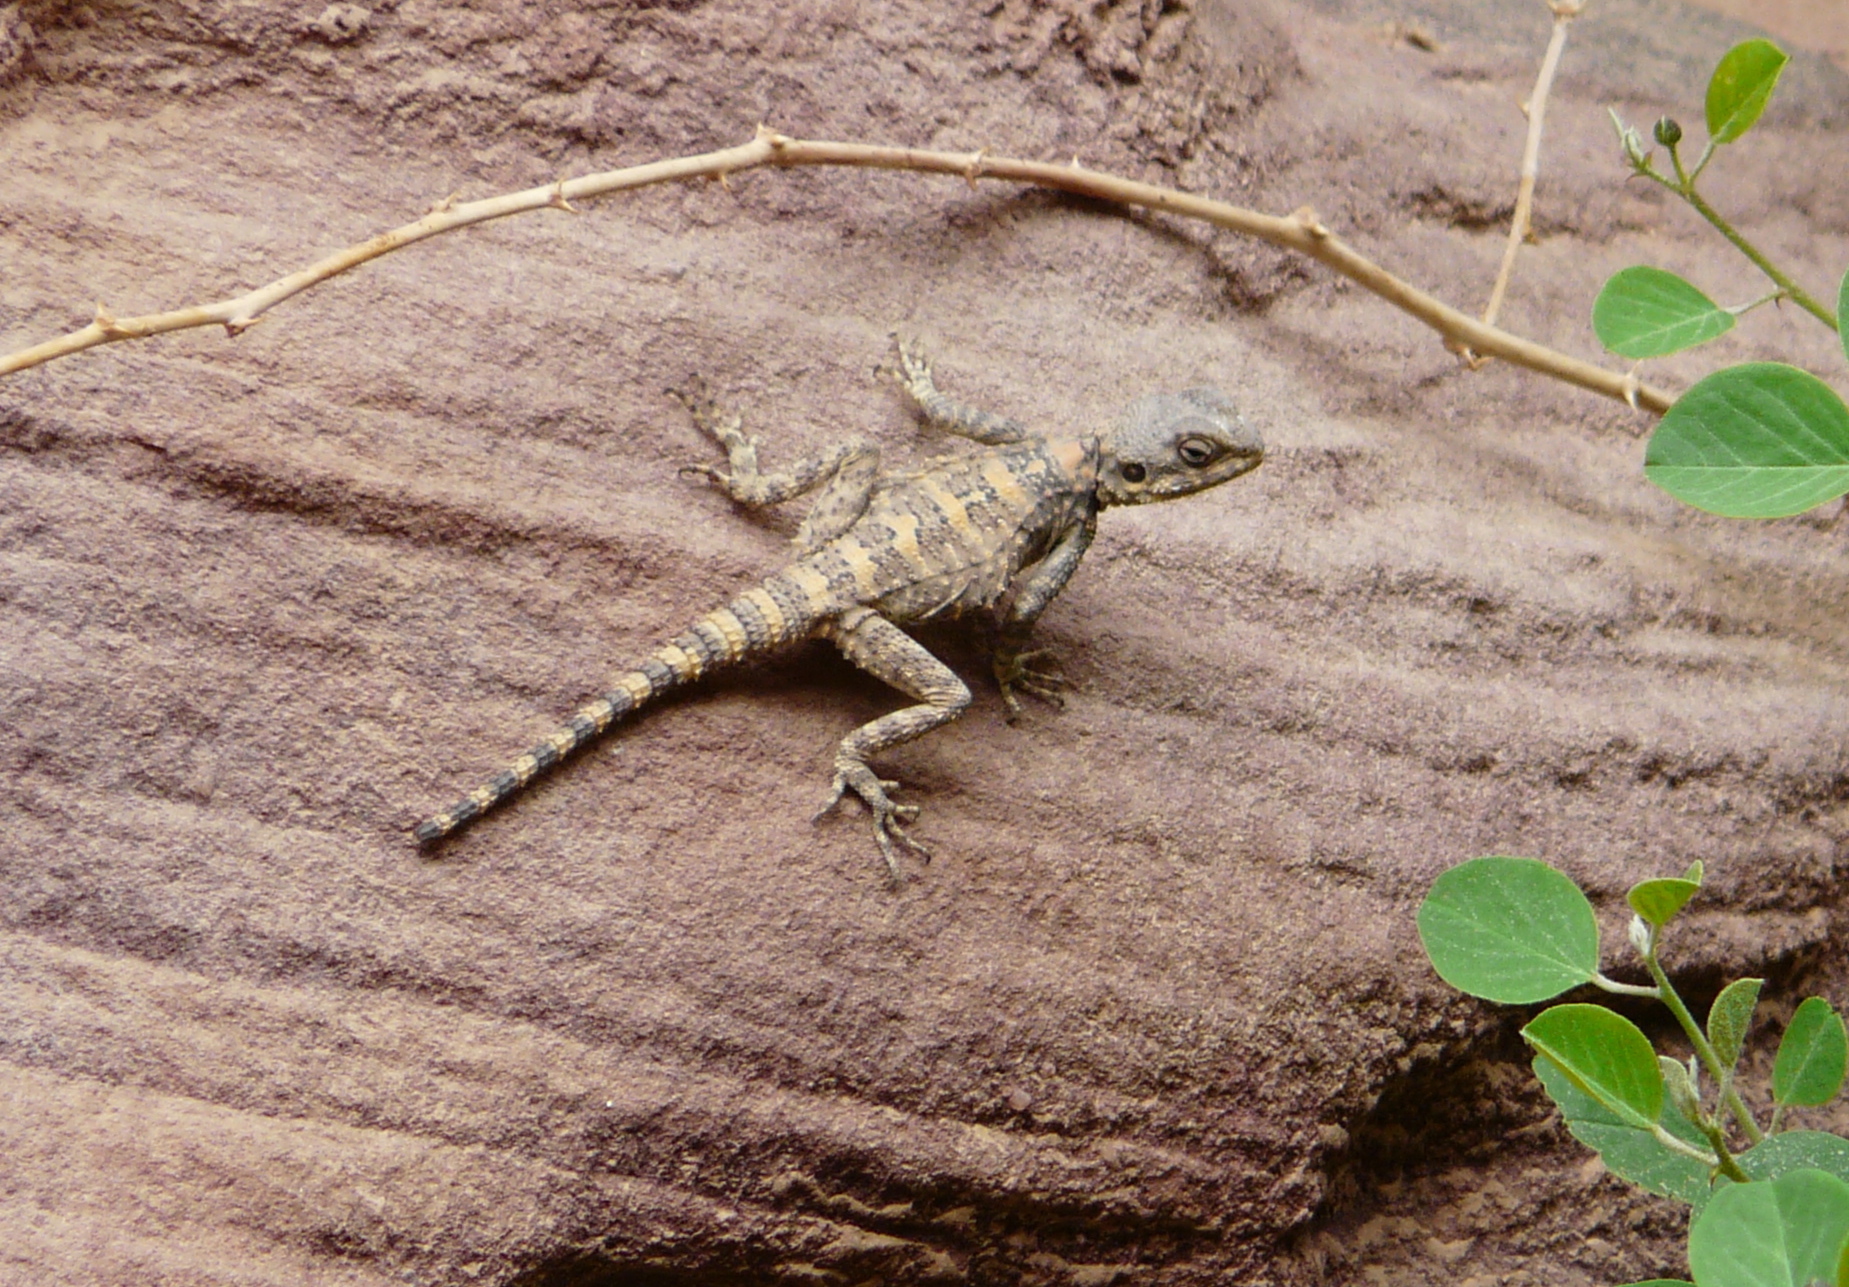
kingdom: Animalia
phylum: Chordata
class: Squamata
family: Agamidae
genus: Laudakia
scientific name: Laudakia vulgaris
